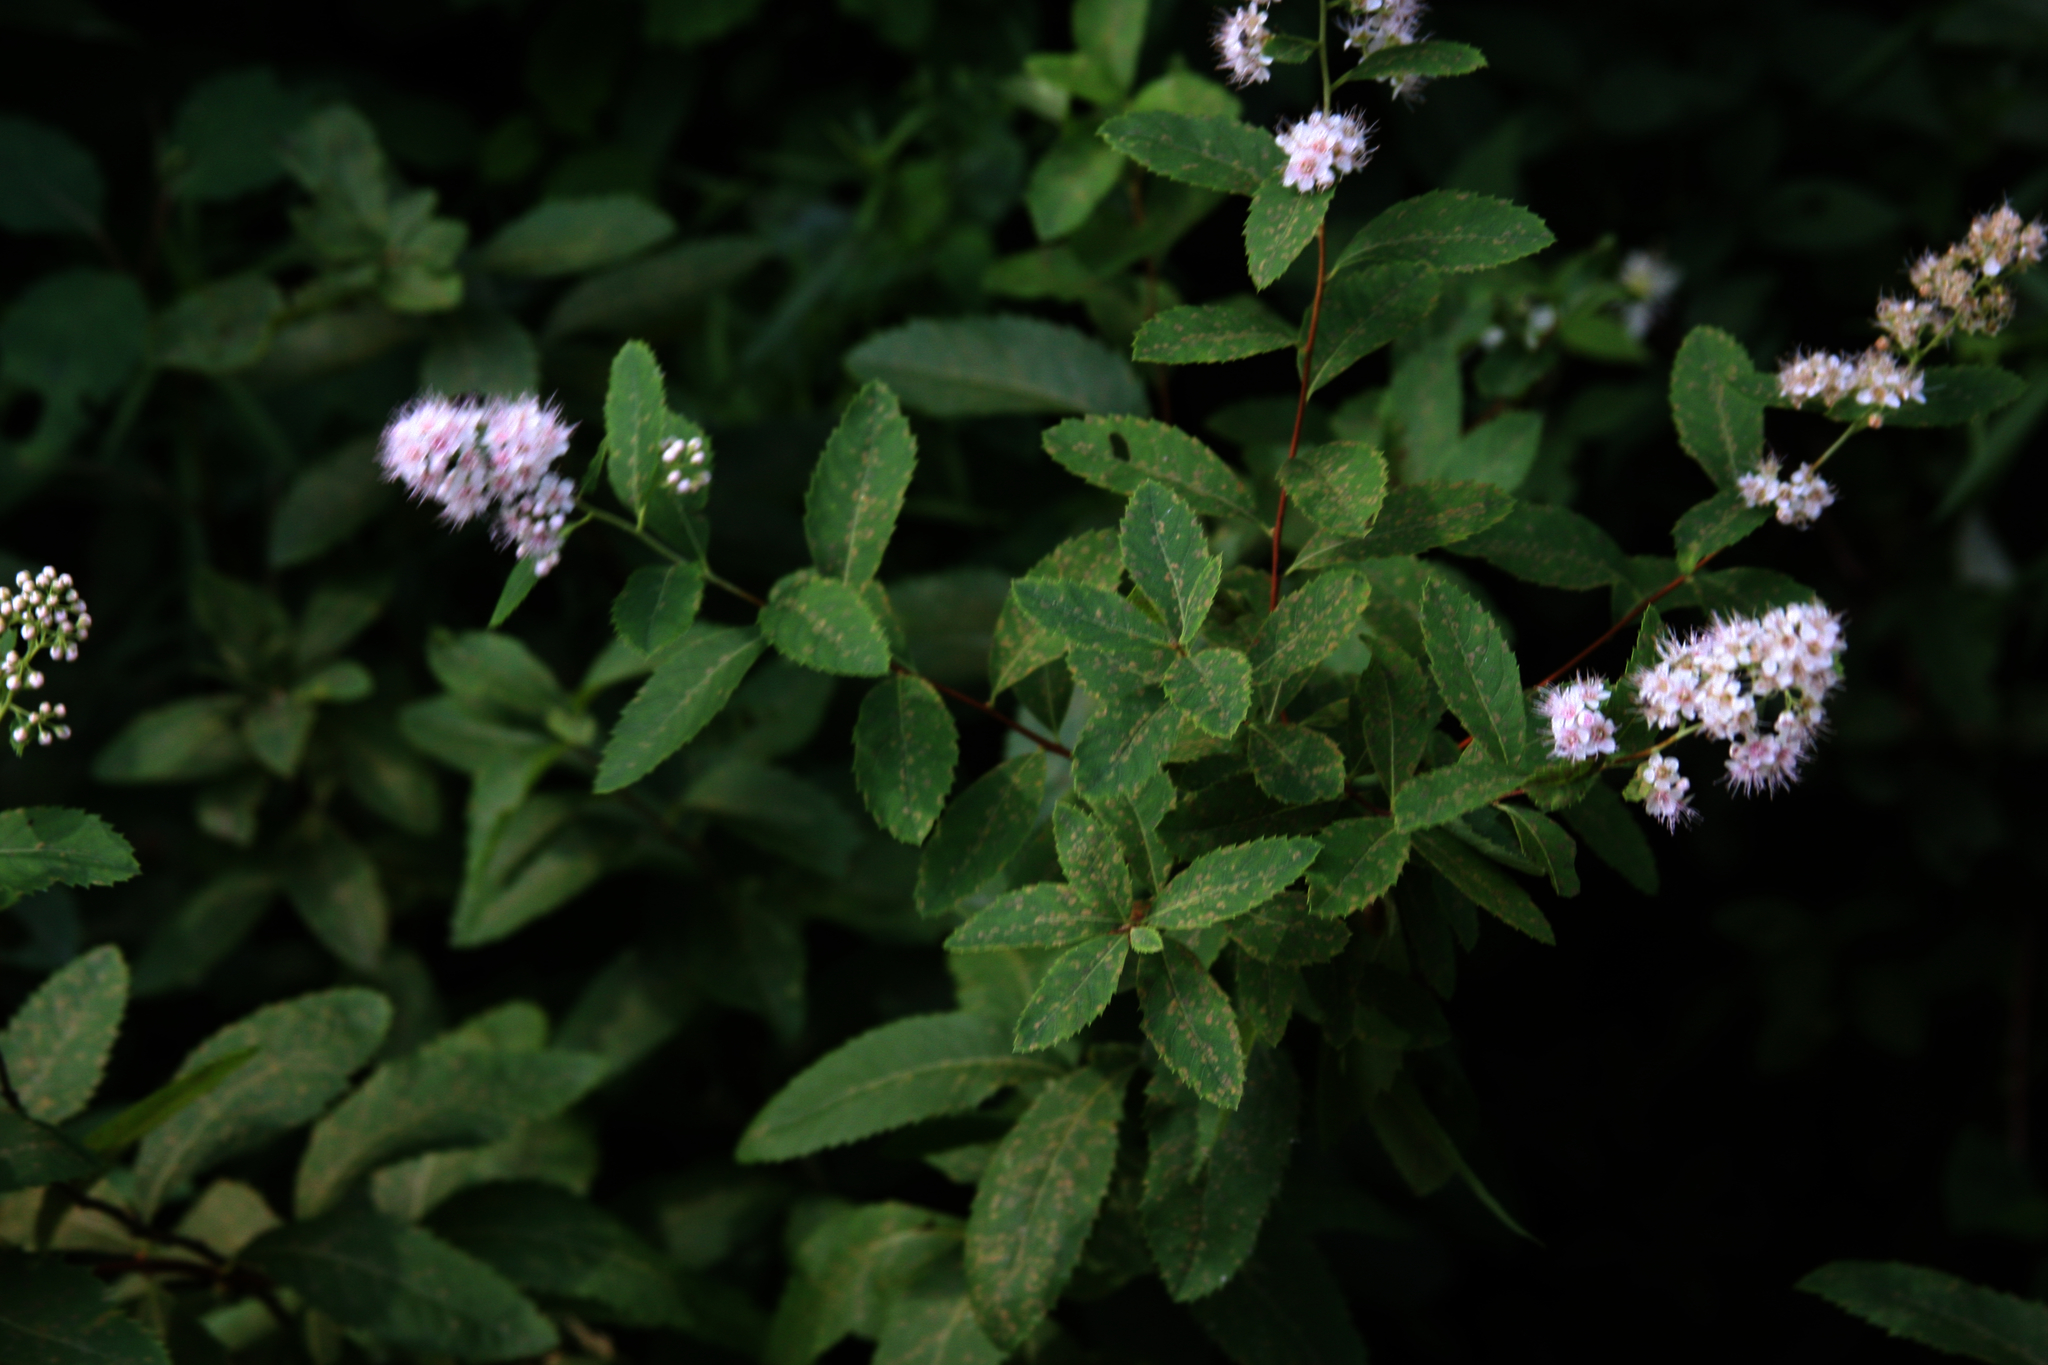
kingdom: Plantae
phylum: Tracheophyta
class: Magnoliopsida
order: Rosales
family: Rosaceae
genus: Spiraea
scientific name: Spiraea alba
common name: Pale bridewort
